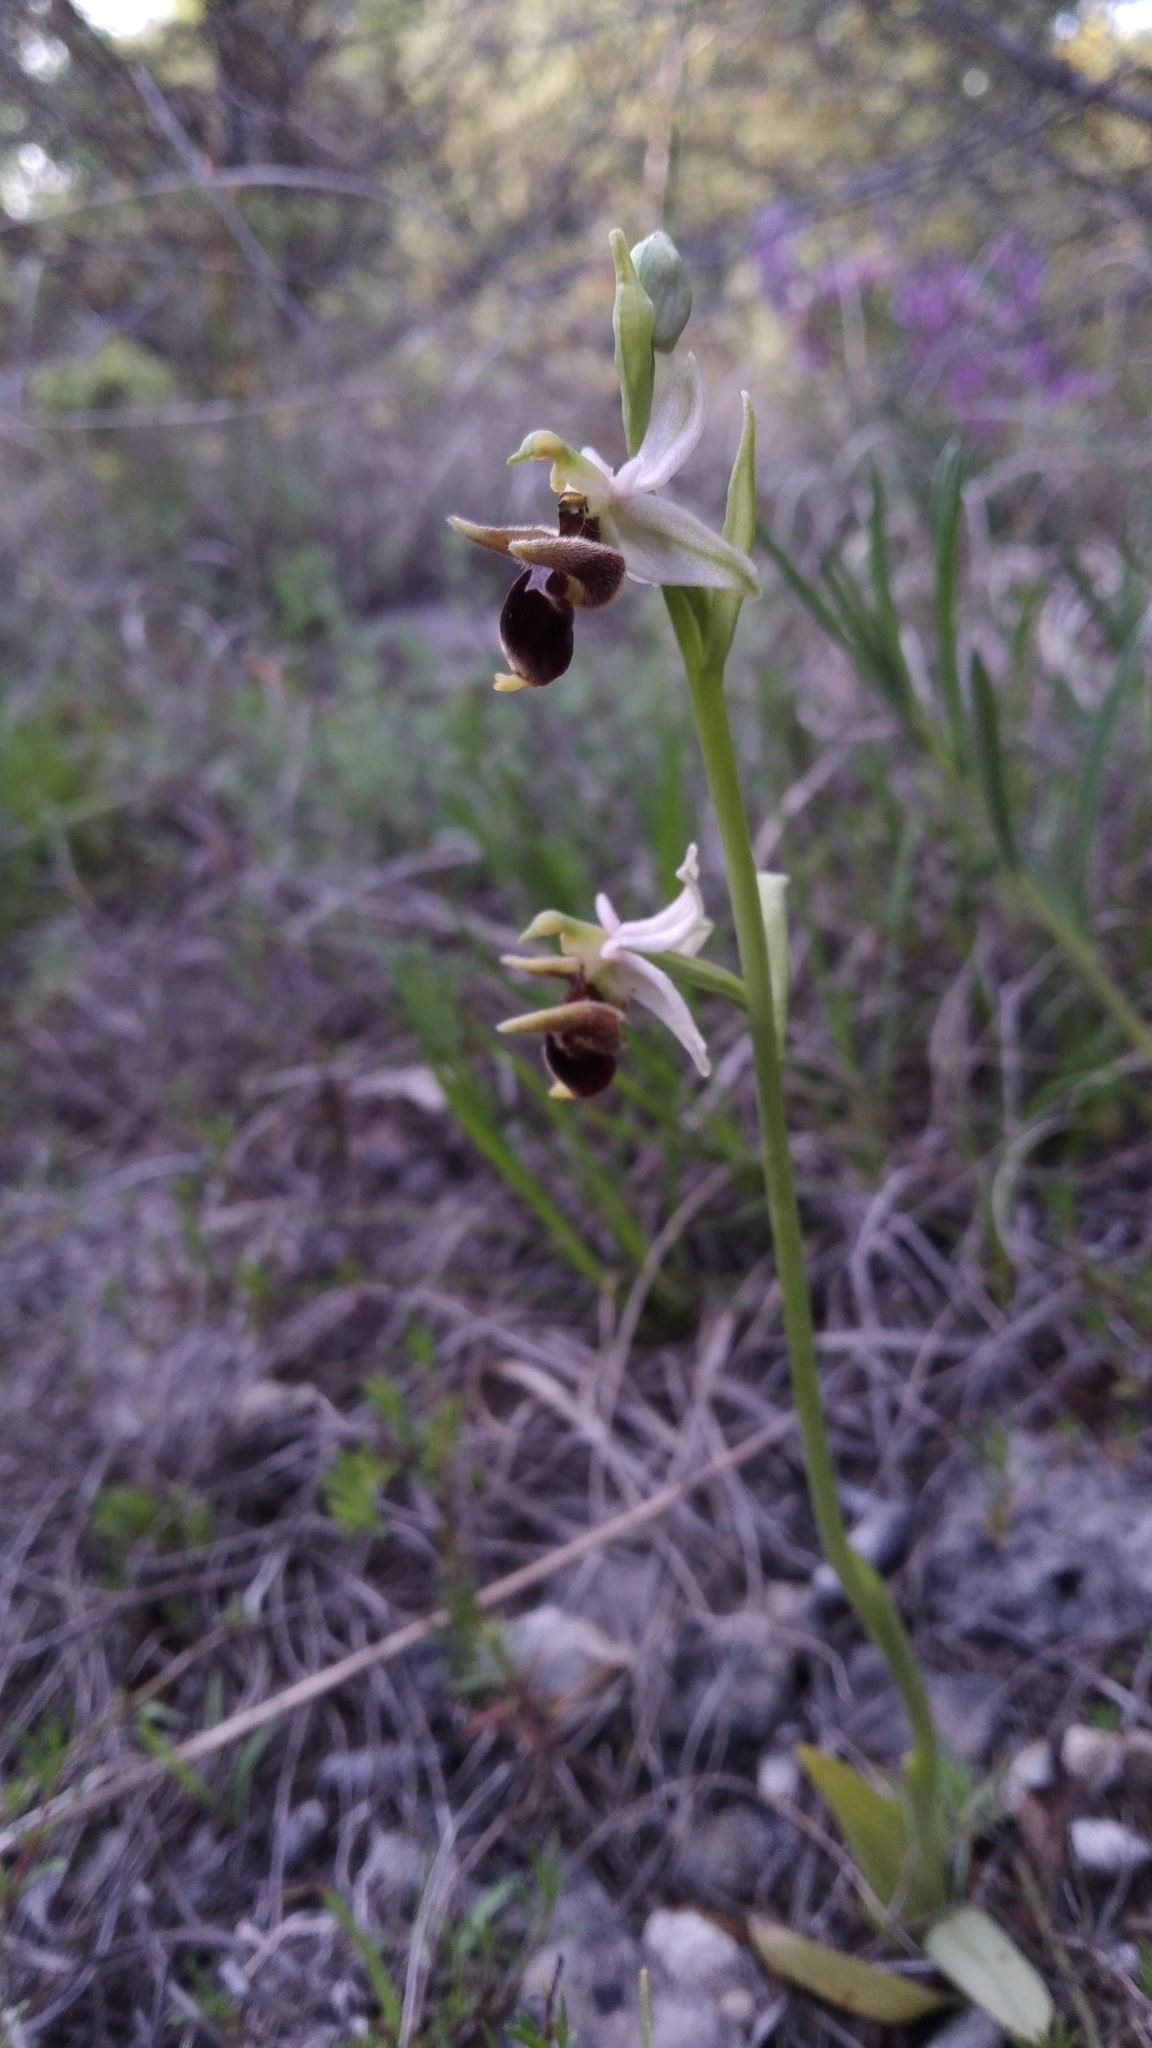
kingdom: Plantae
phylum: Tracheophyta
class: Liliopsida
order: Asparagales
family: Orchidaceae
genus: Ophrys
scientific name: Ophrys
